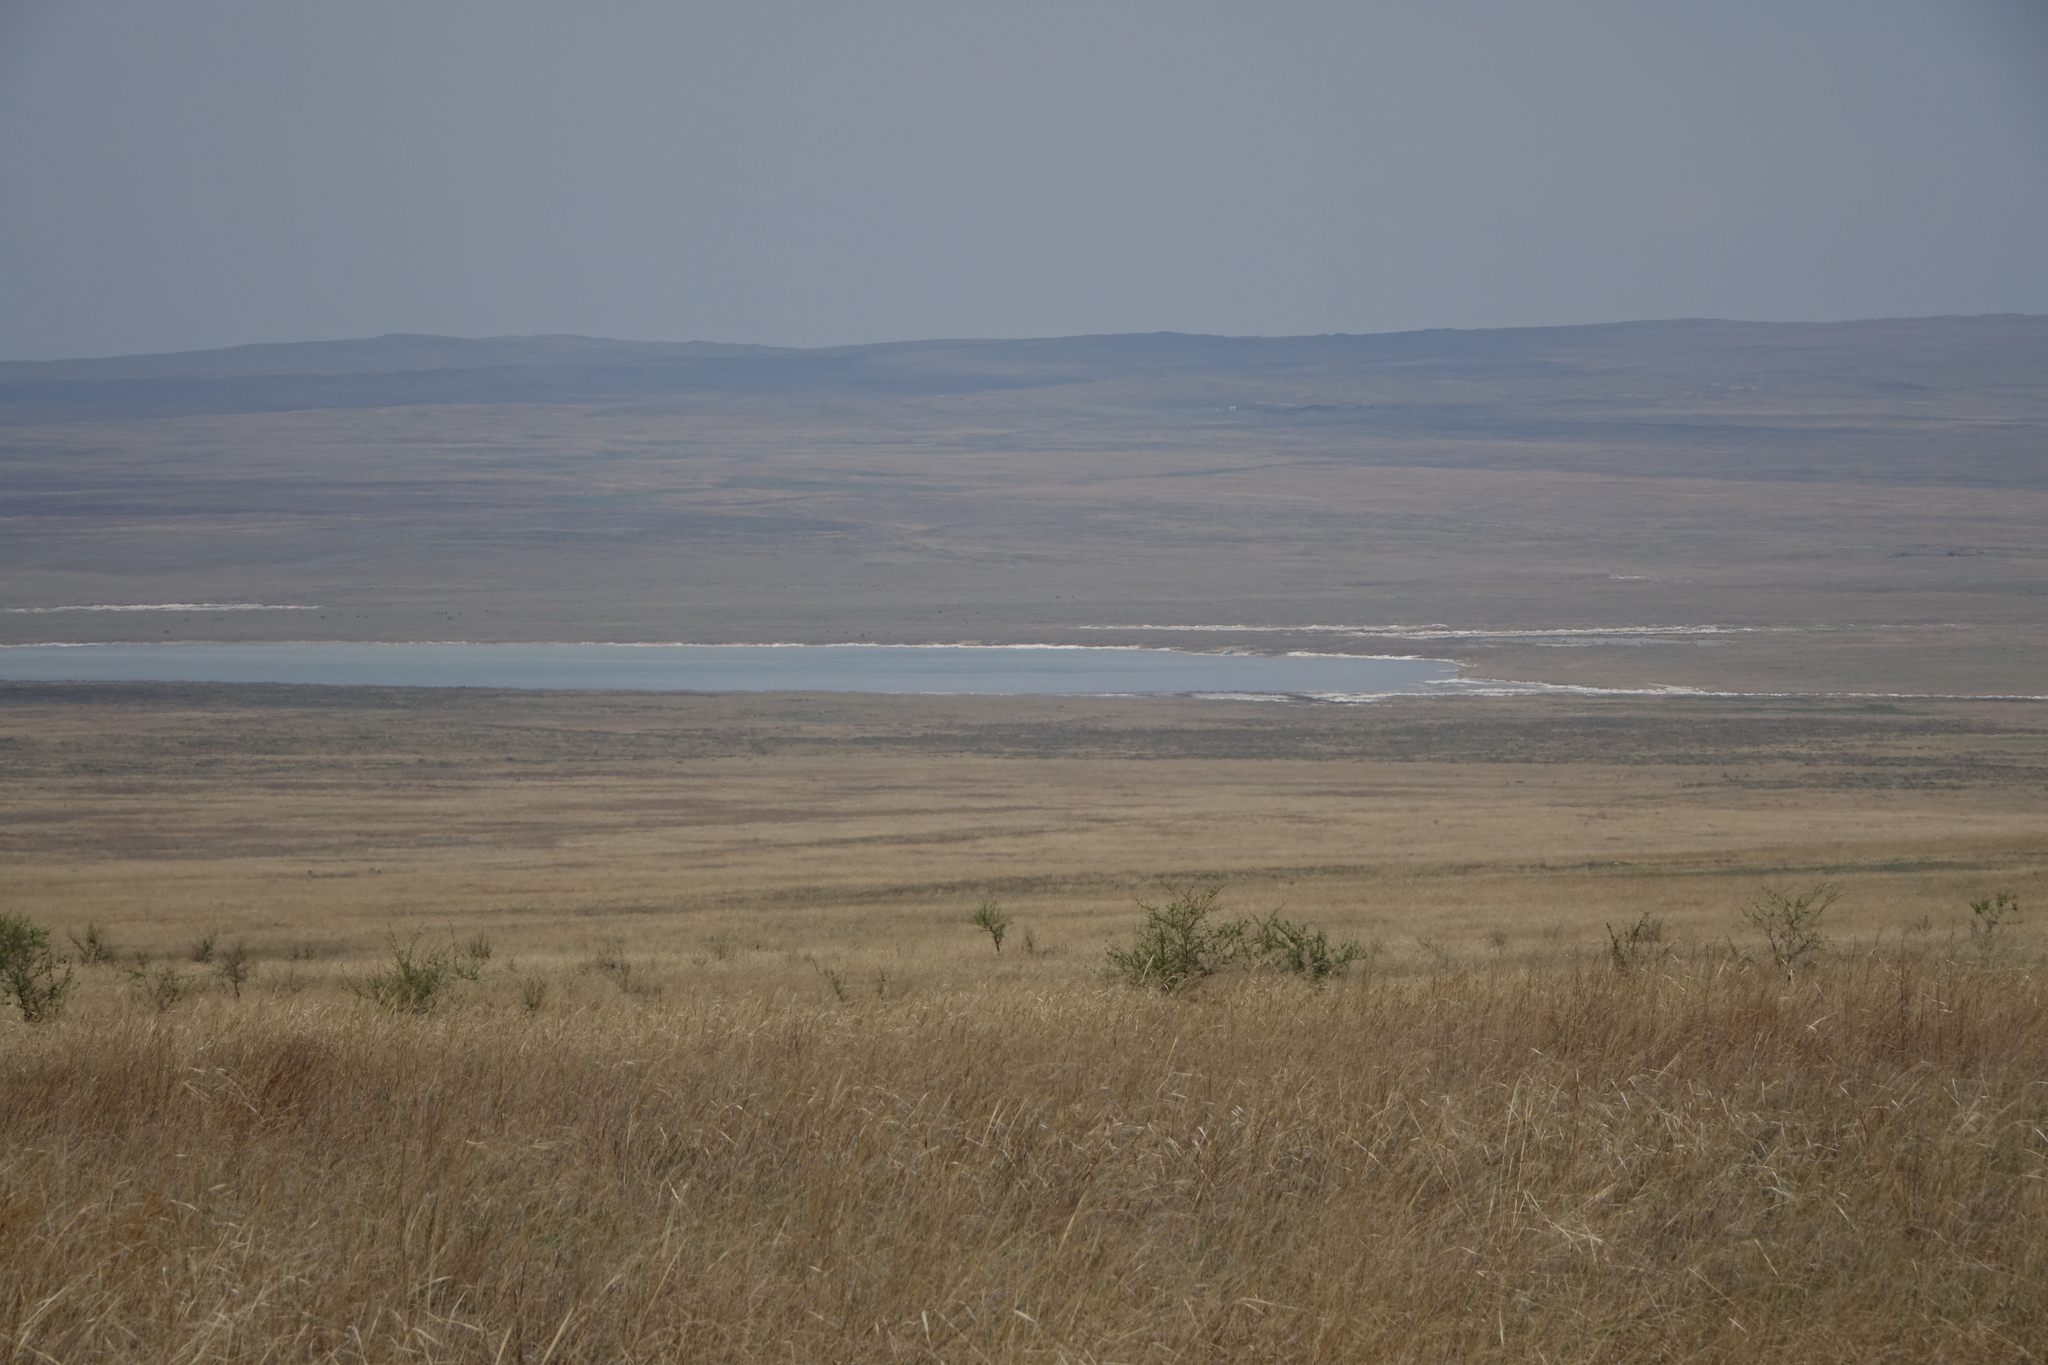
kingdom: Plantae
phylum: Tracheophyta
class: Magnoliopsida
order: Rosales
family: Ulmaceae
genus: Ulmus
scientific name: Ulmus pumila
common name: Siberian elm
